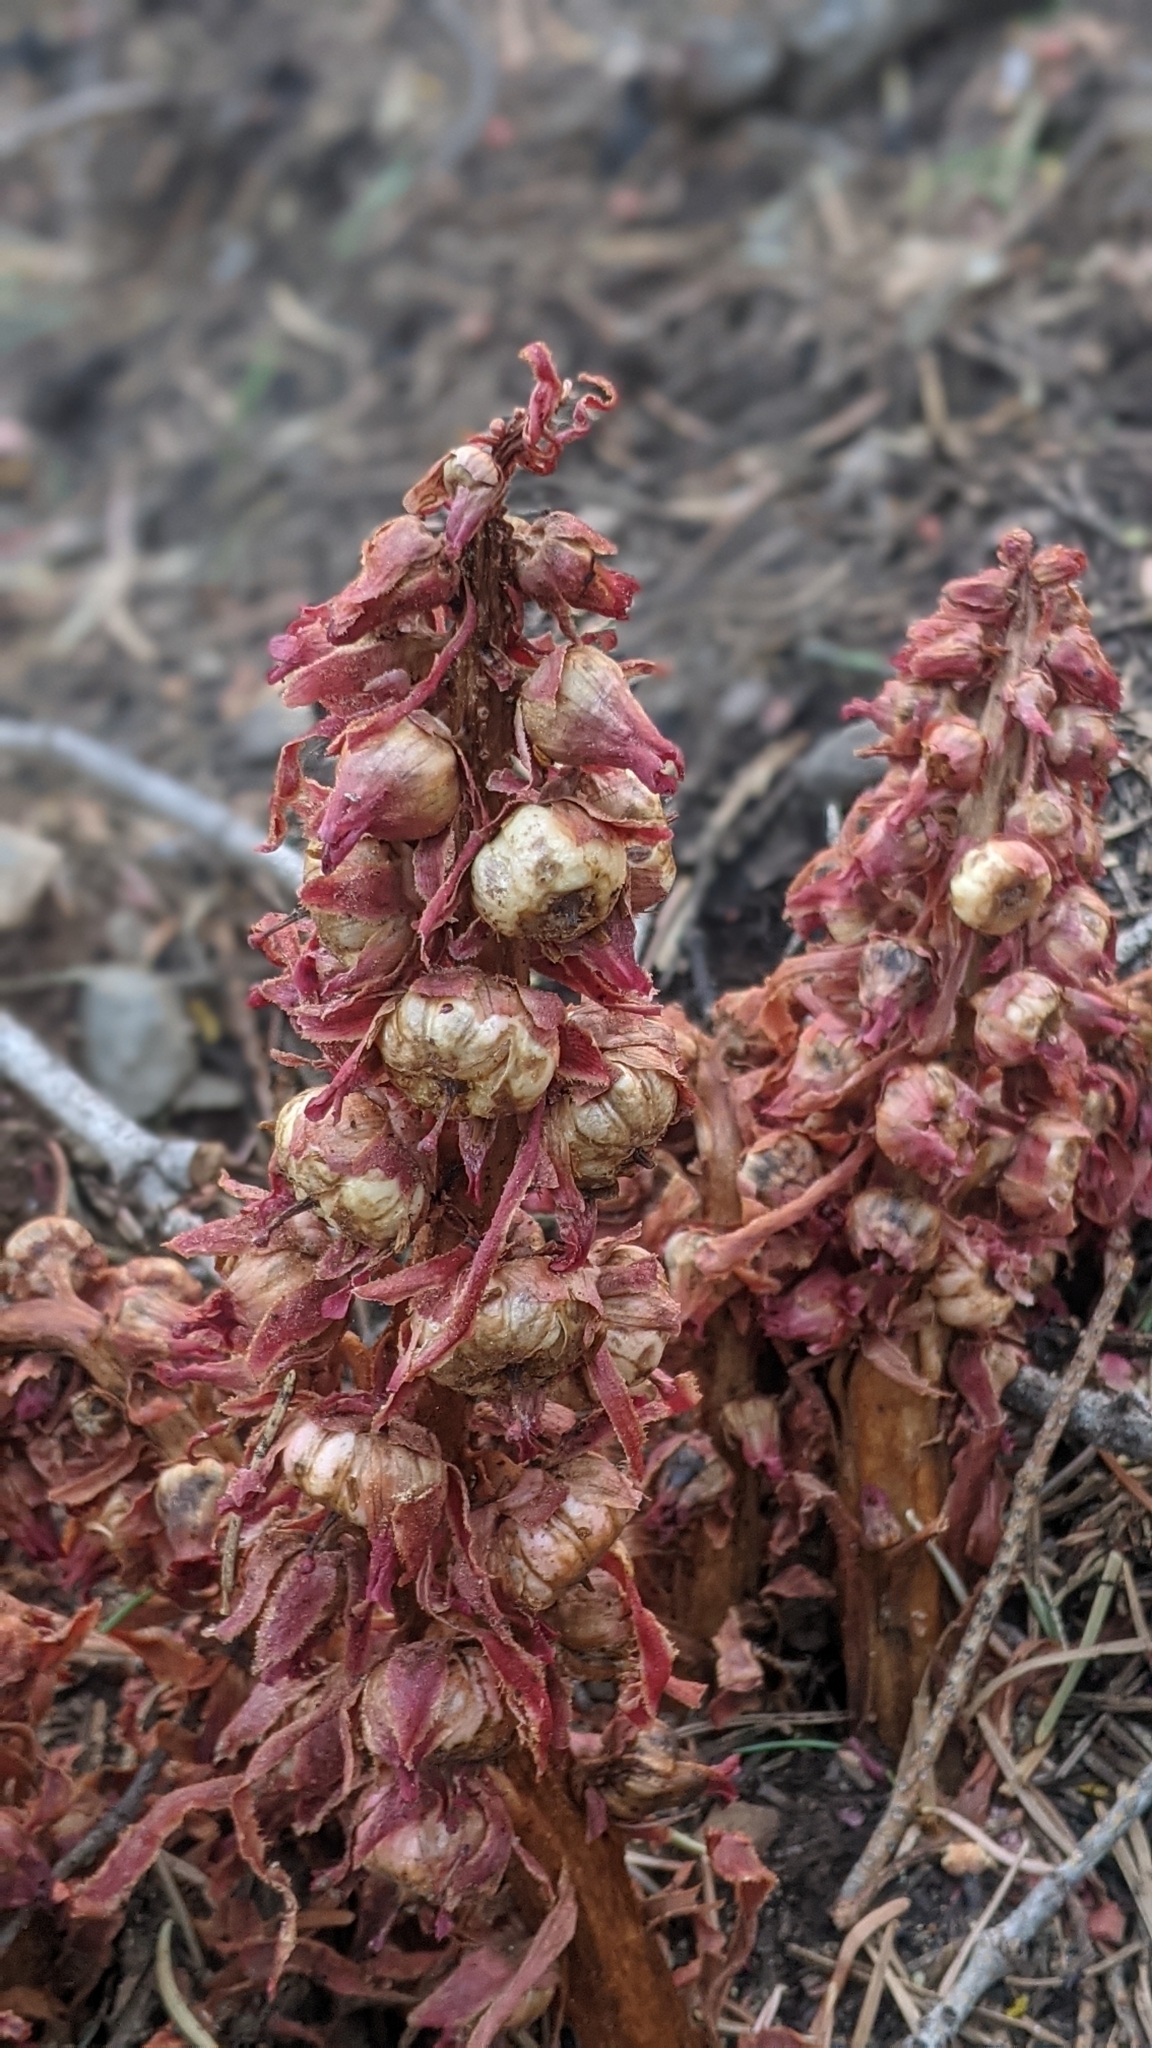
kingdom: Plantae
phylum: Tracheophyta
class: Magnoliopsida
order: Ericales
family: Ericaceae
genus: Sarcodes
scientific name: Sarcodes sanguinea
